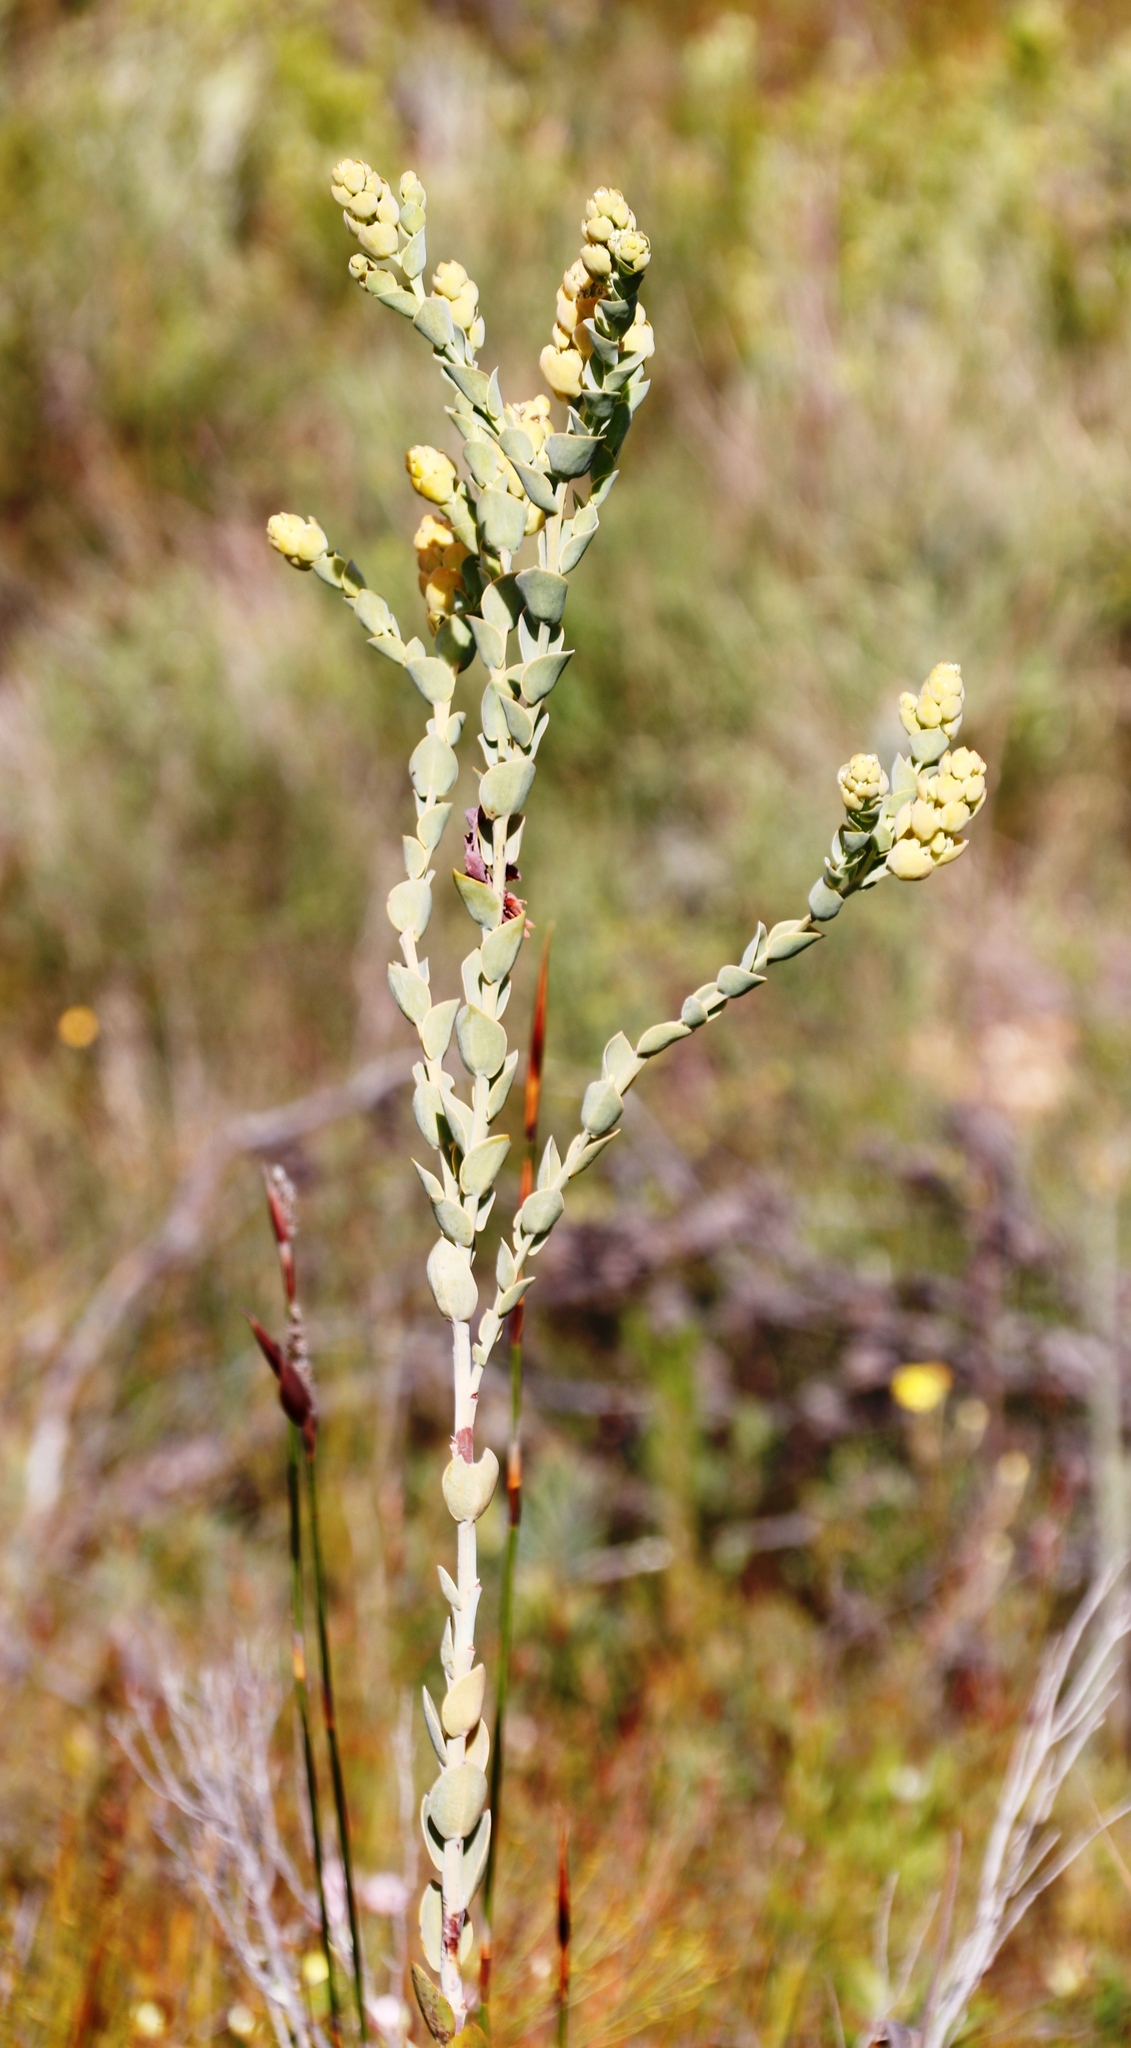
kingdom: Plantae
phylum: Tracheophyta
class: Magnoliopsida
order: Santalales
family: Thesiaceae
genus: Thesium
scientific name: Thesium euphorbioides
